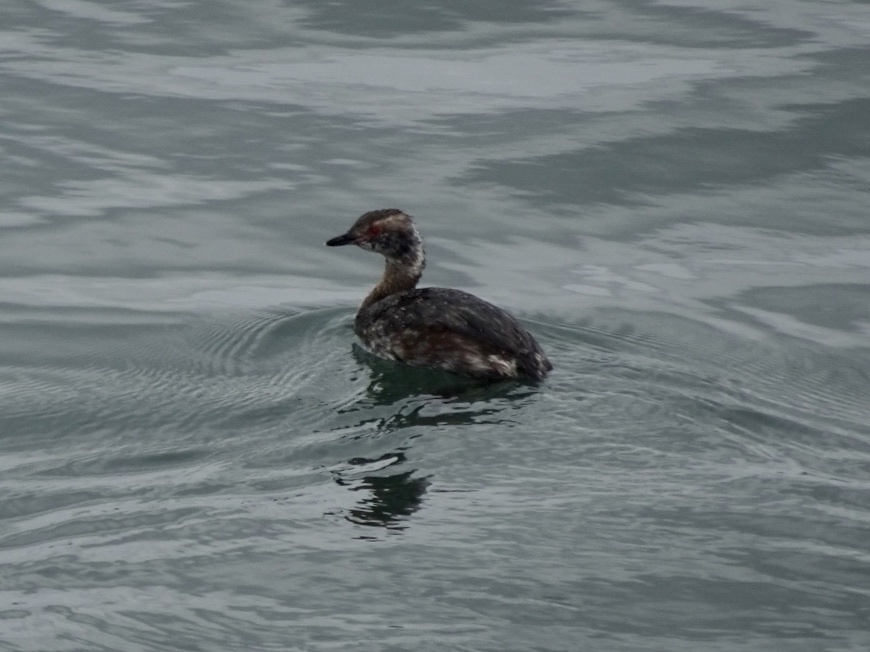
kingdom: Animalia
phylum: Chordata
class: Aves
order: Podicipediformes
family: Podicipedidae
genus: Podiceps
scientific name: Podiceps auritus
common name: Horned grebe
